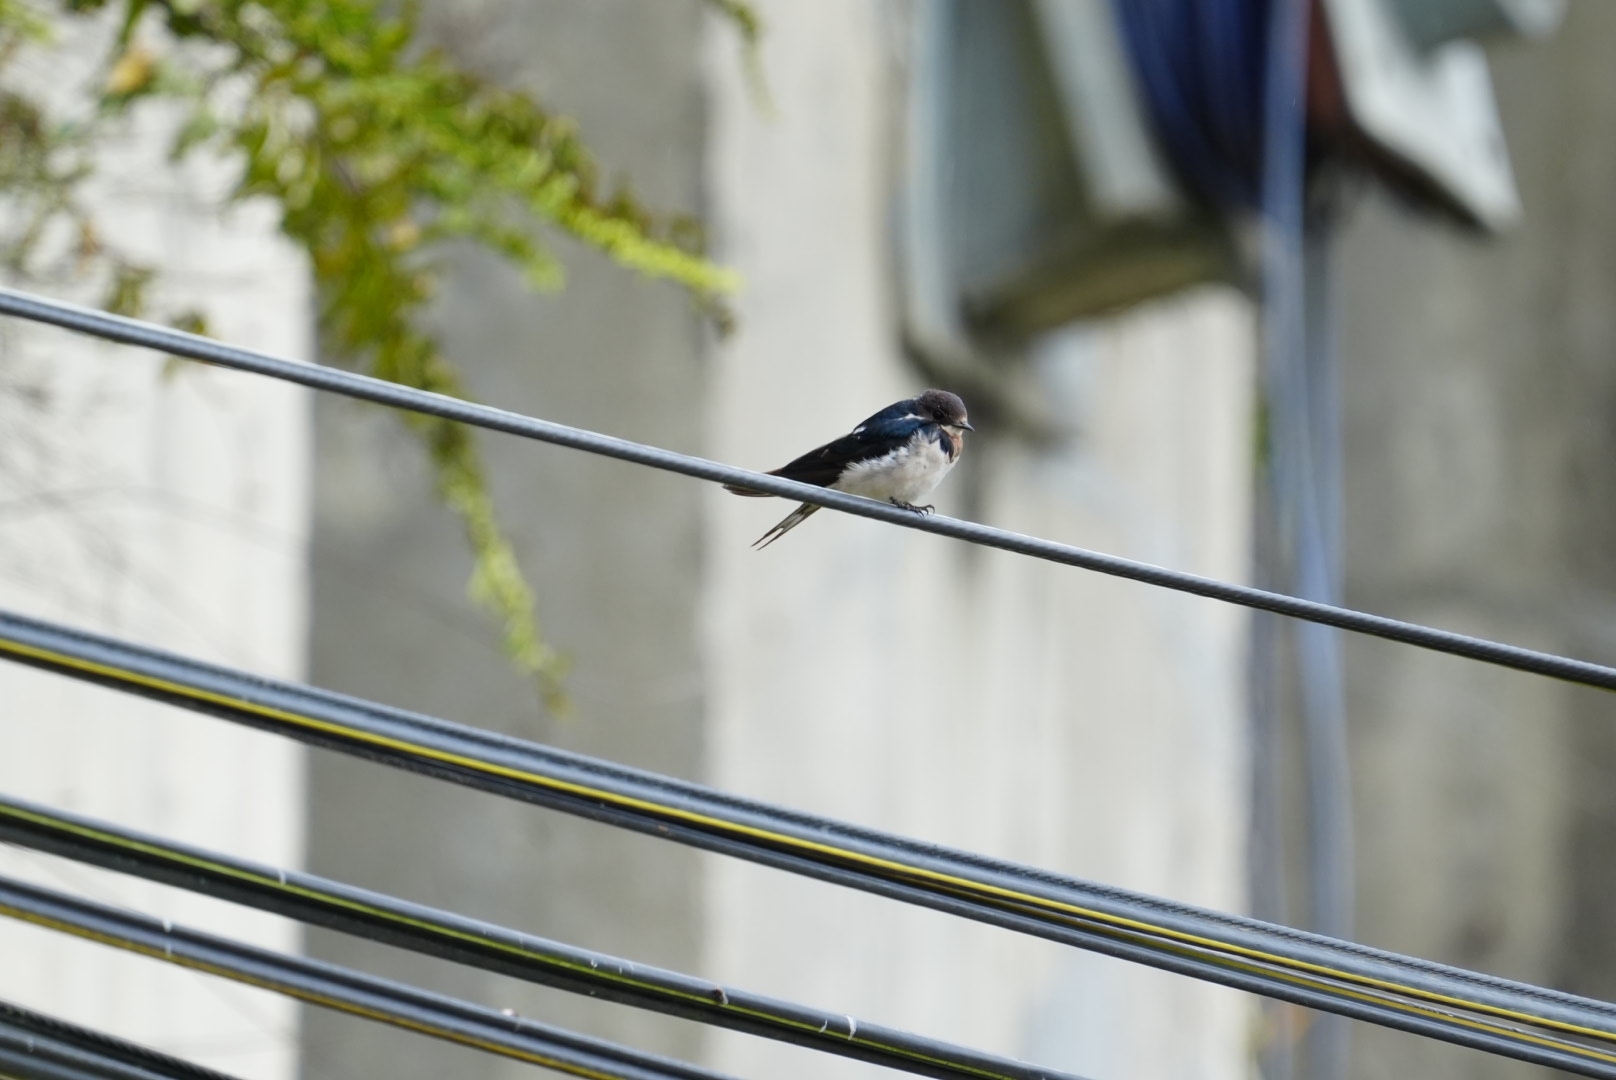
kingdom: Animalia
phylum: Chordata
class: Aves
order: Passeriformes
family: Hirundinidae
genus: Hirundo
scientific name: Hirundo rustica
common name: Barn swallow
